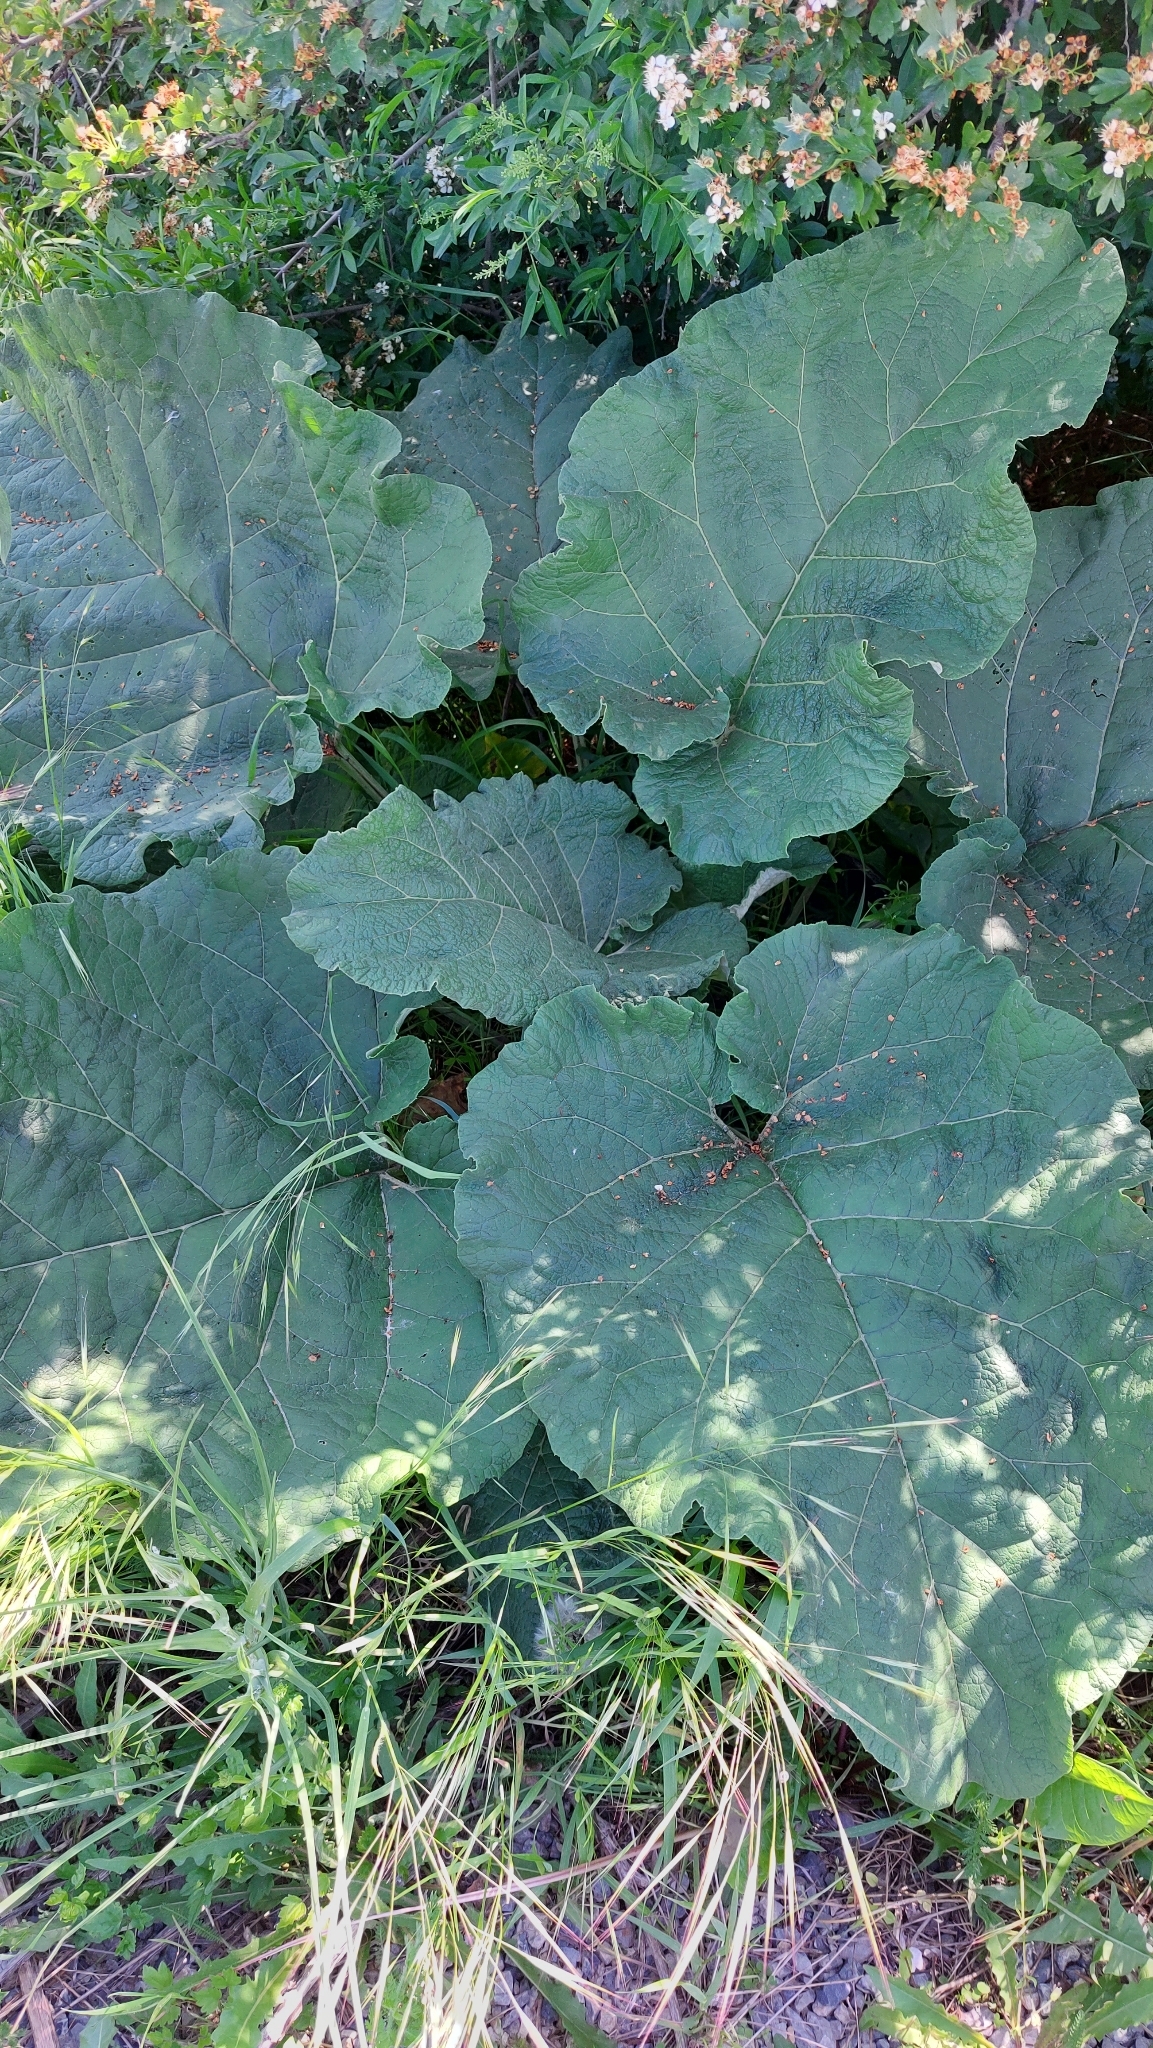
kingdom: Plantae
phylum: Tracheophyta
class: Magnoliopsida
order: Asterales
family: Asteraceae
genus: Arctium
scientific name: Arctium
